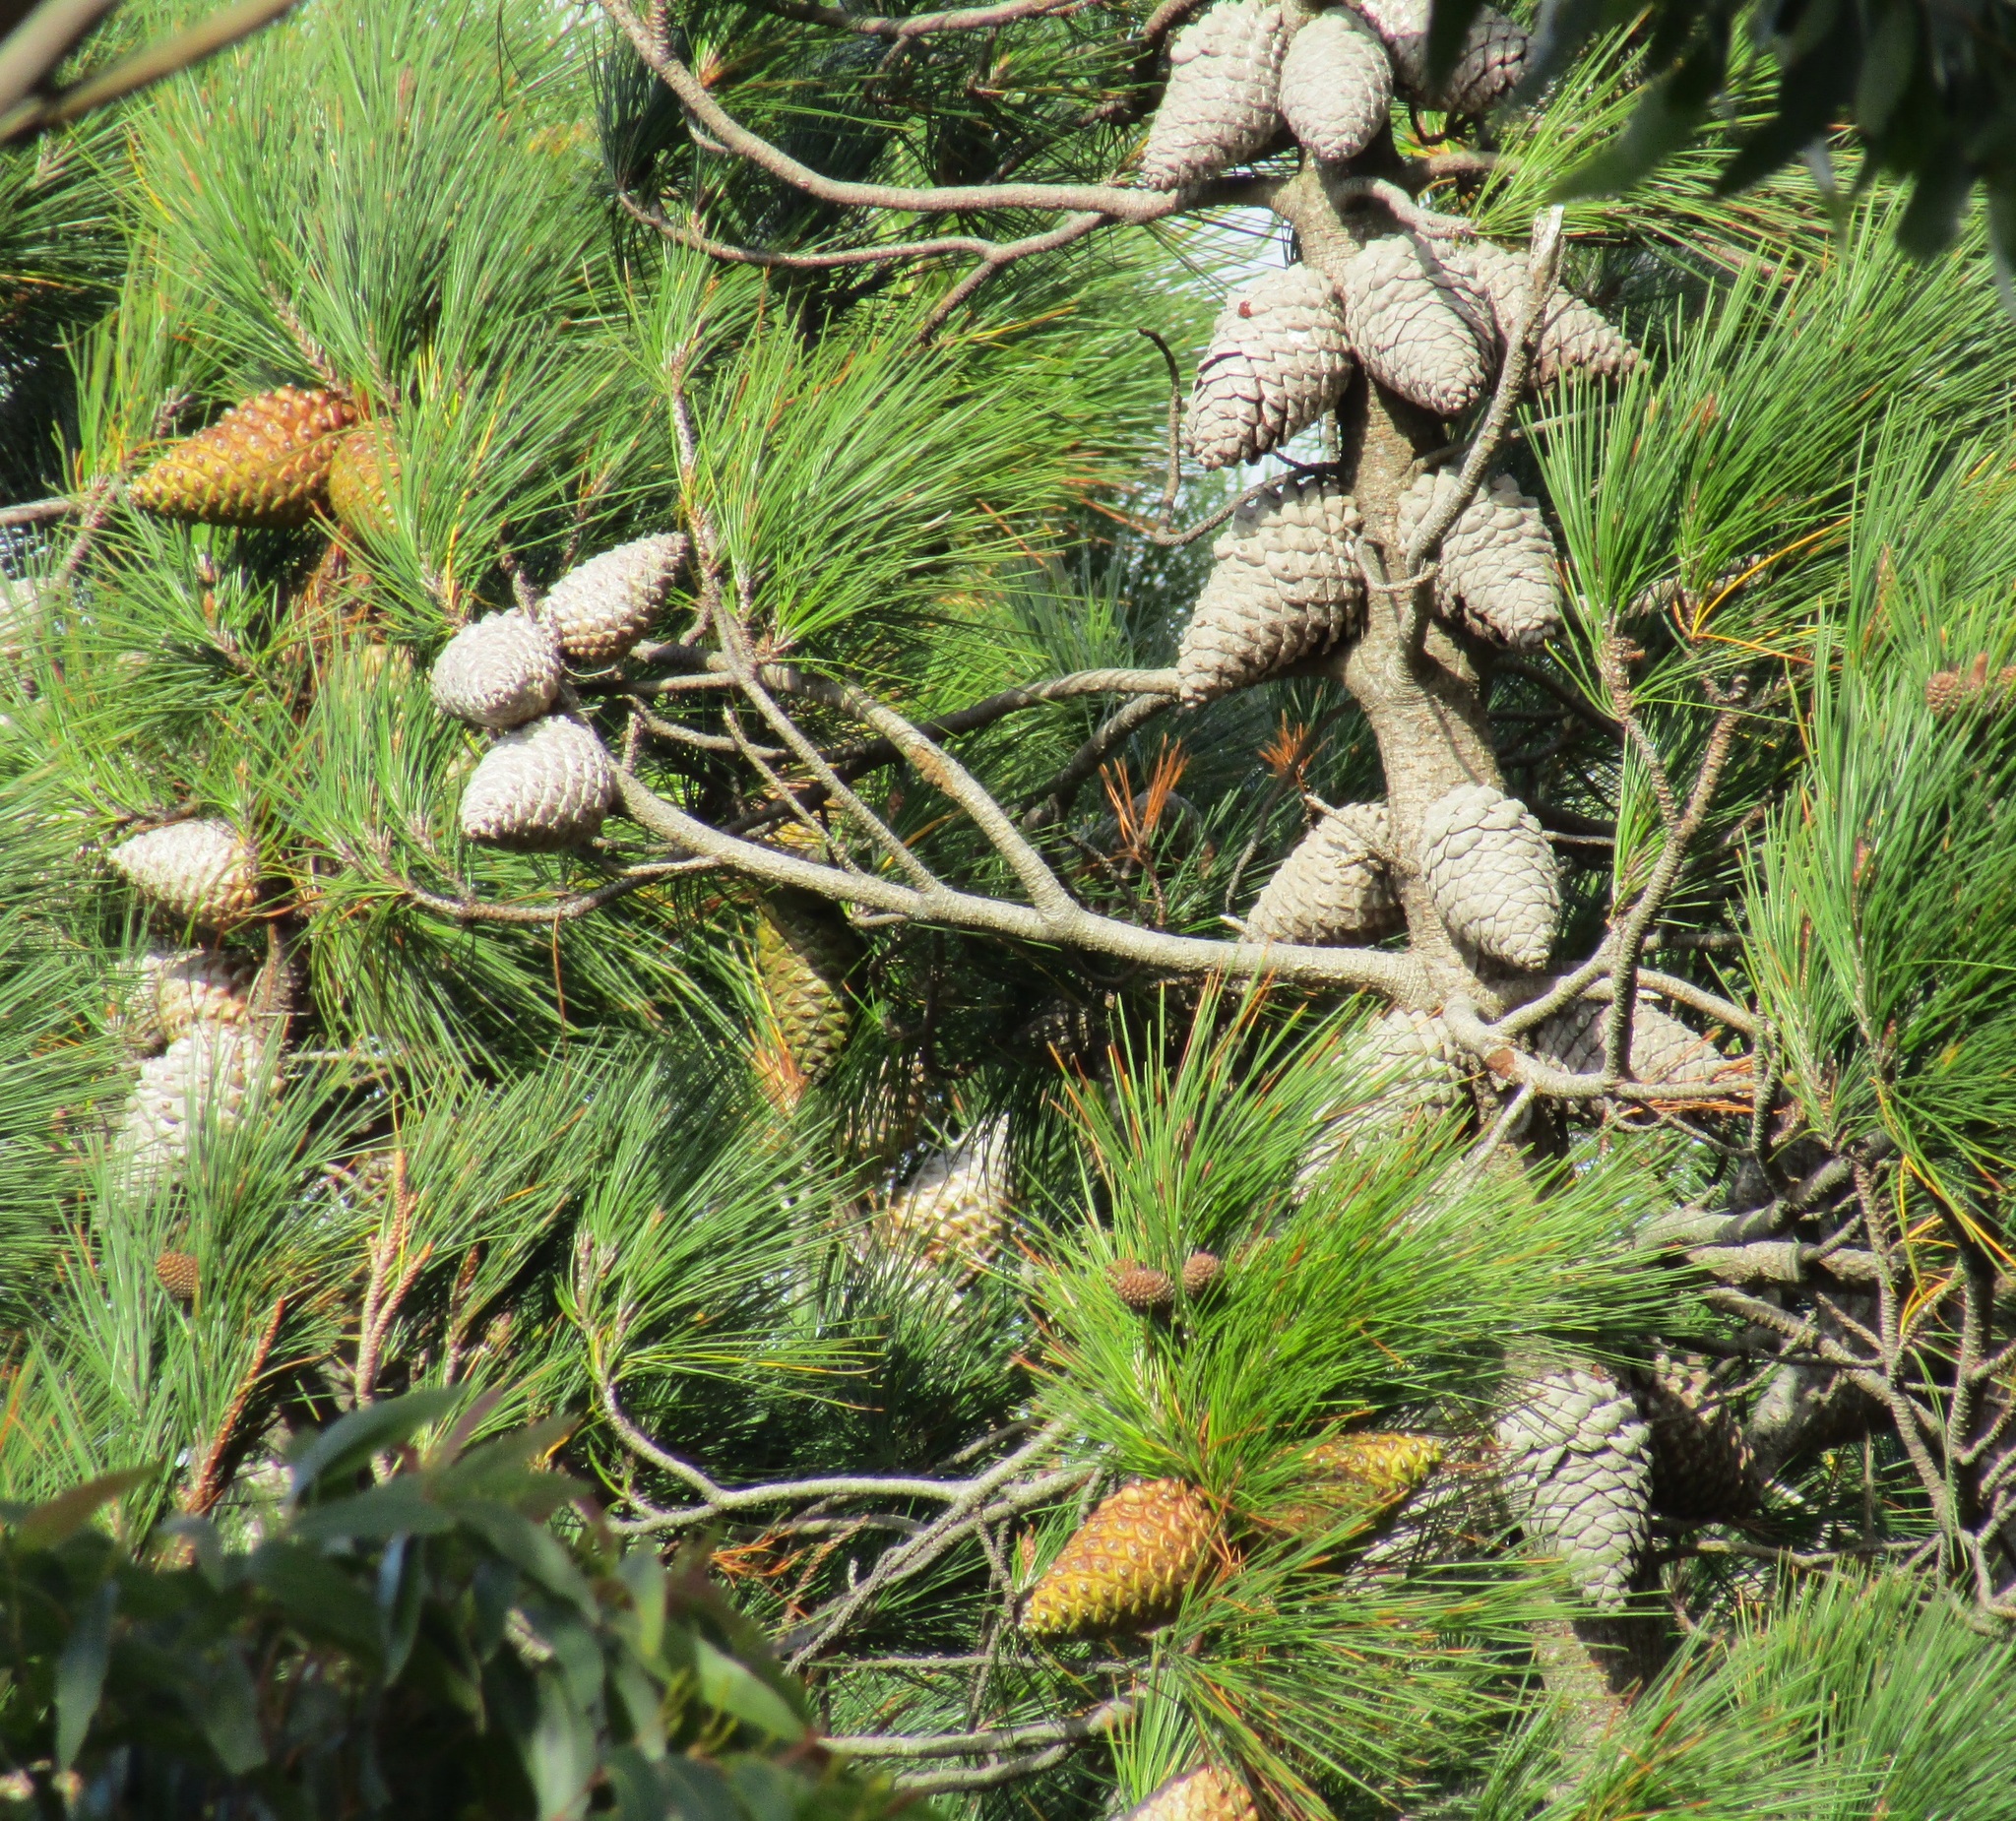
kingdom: Plantae
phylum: Tracheophyta
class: Pinopsida
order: Pinales
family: Pinaceae
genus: Pinus
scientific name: Pinus radiata
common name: Monterey pine
